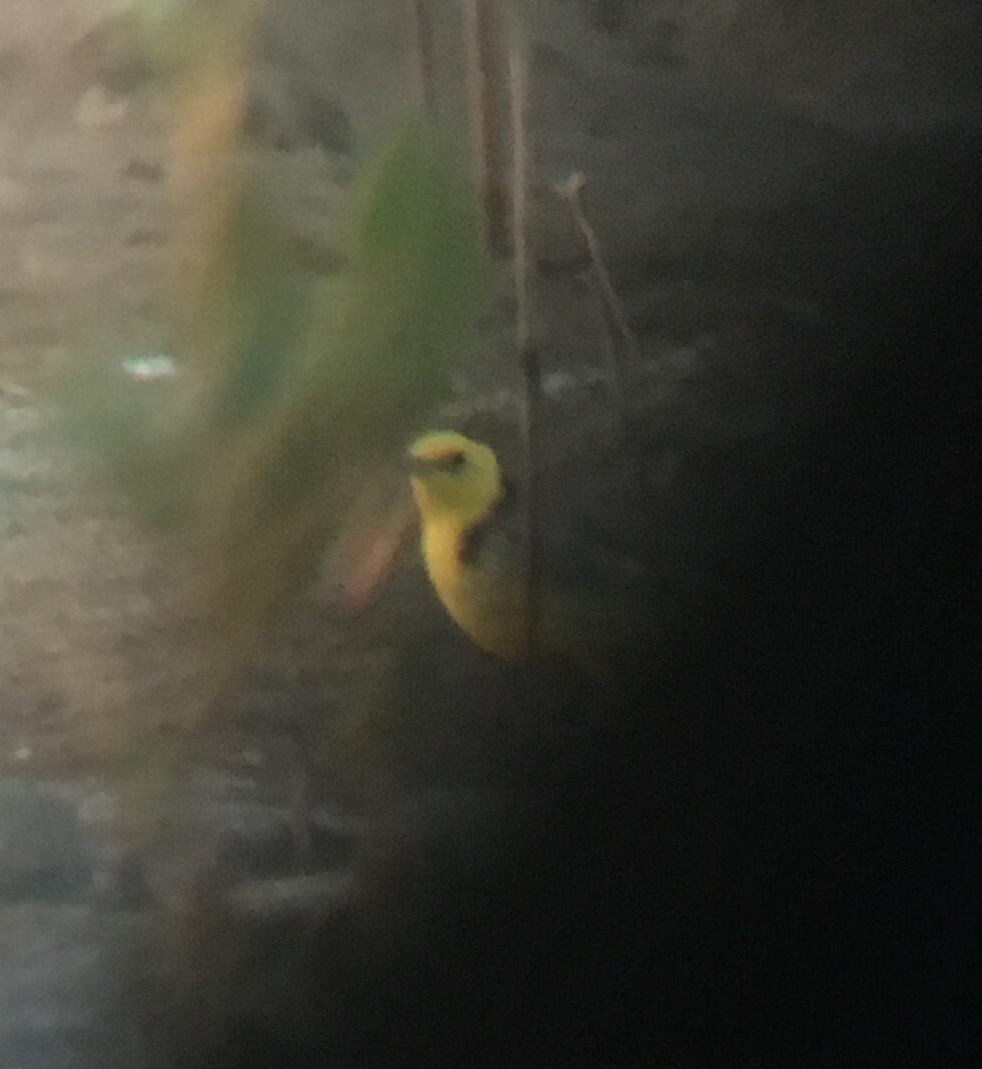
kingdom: Animalia
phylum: Chordata
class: Aves
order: Passeriformes
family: Motacillidae
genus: Motacilla
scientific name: Motacilla citreola
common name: Citrine wagtail
